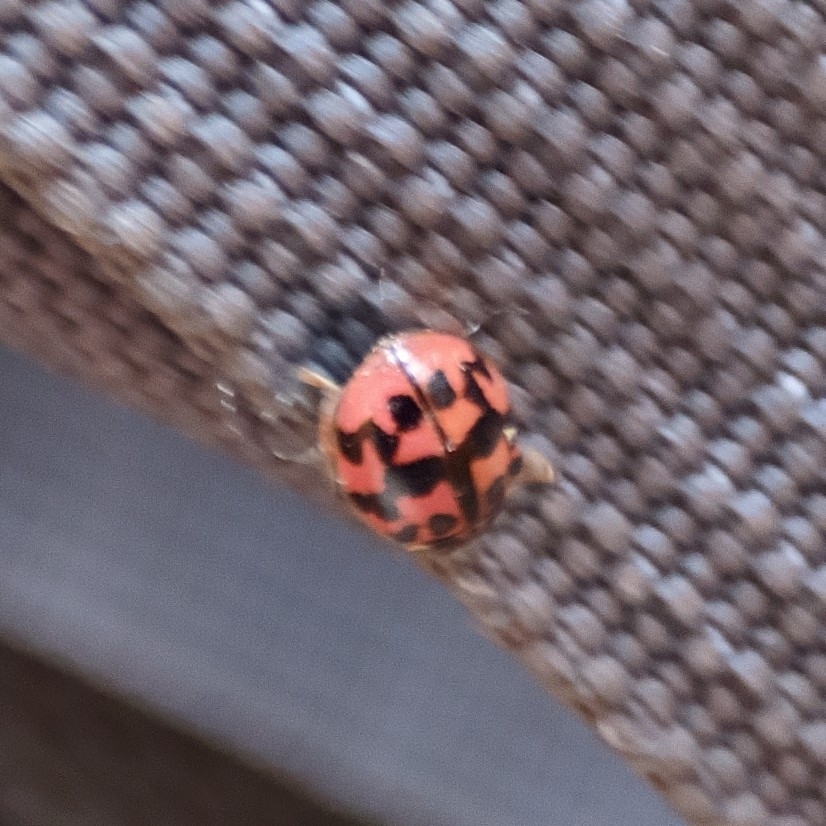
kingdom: Animalia
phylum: Arthropoda
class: Insecta
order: Coleoptera
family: Coccinellidae
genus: Oenopia
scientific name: Oenopia conglobata
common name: Ladybird beetle
